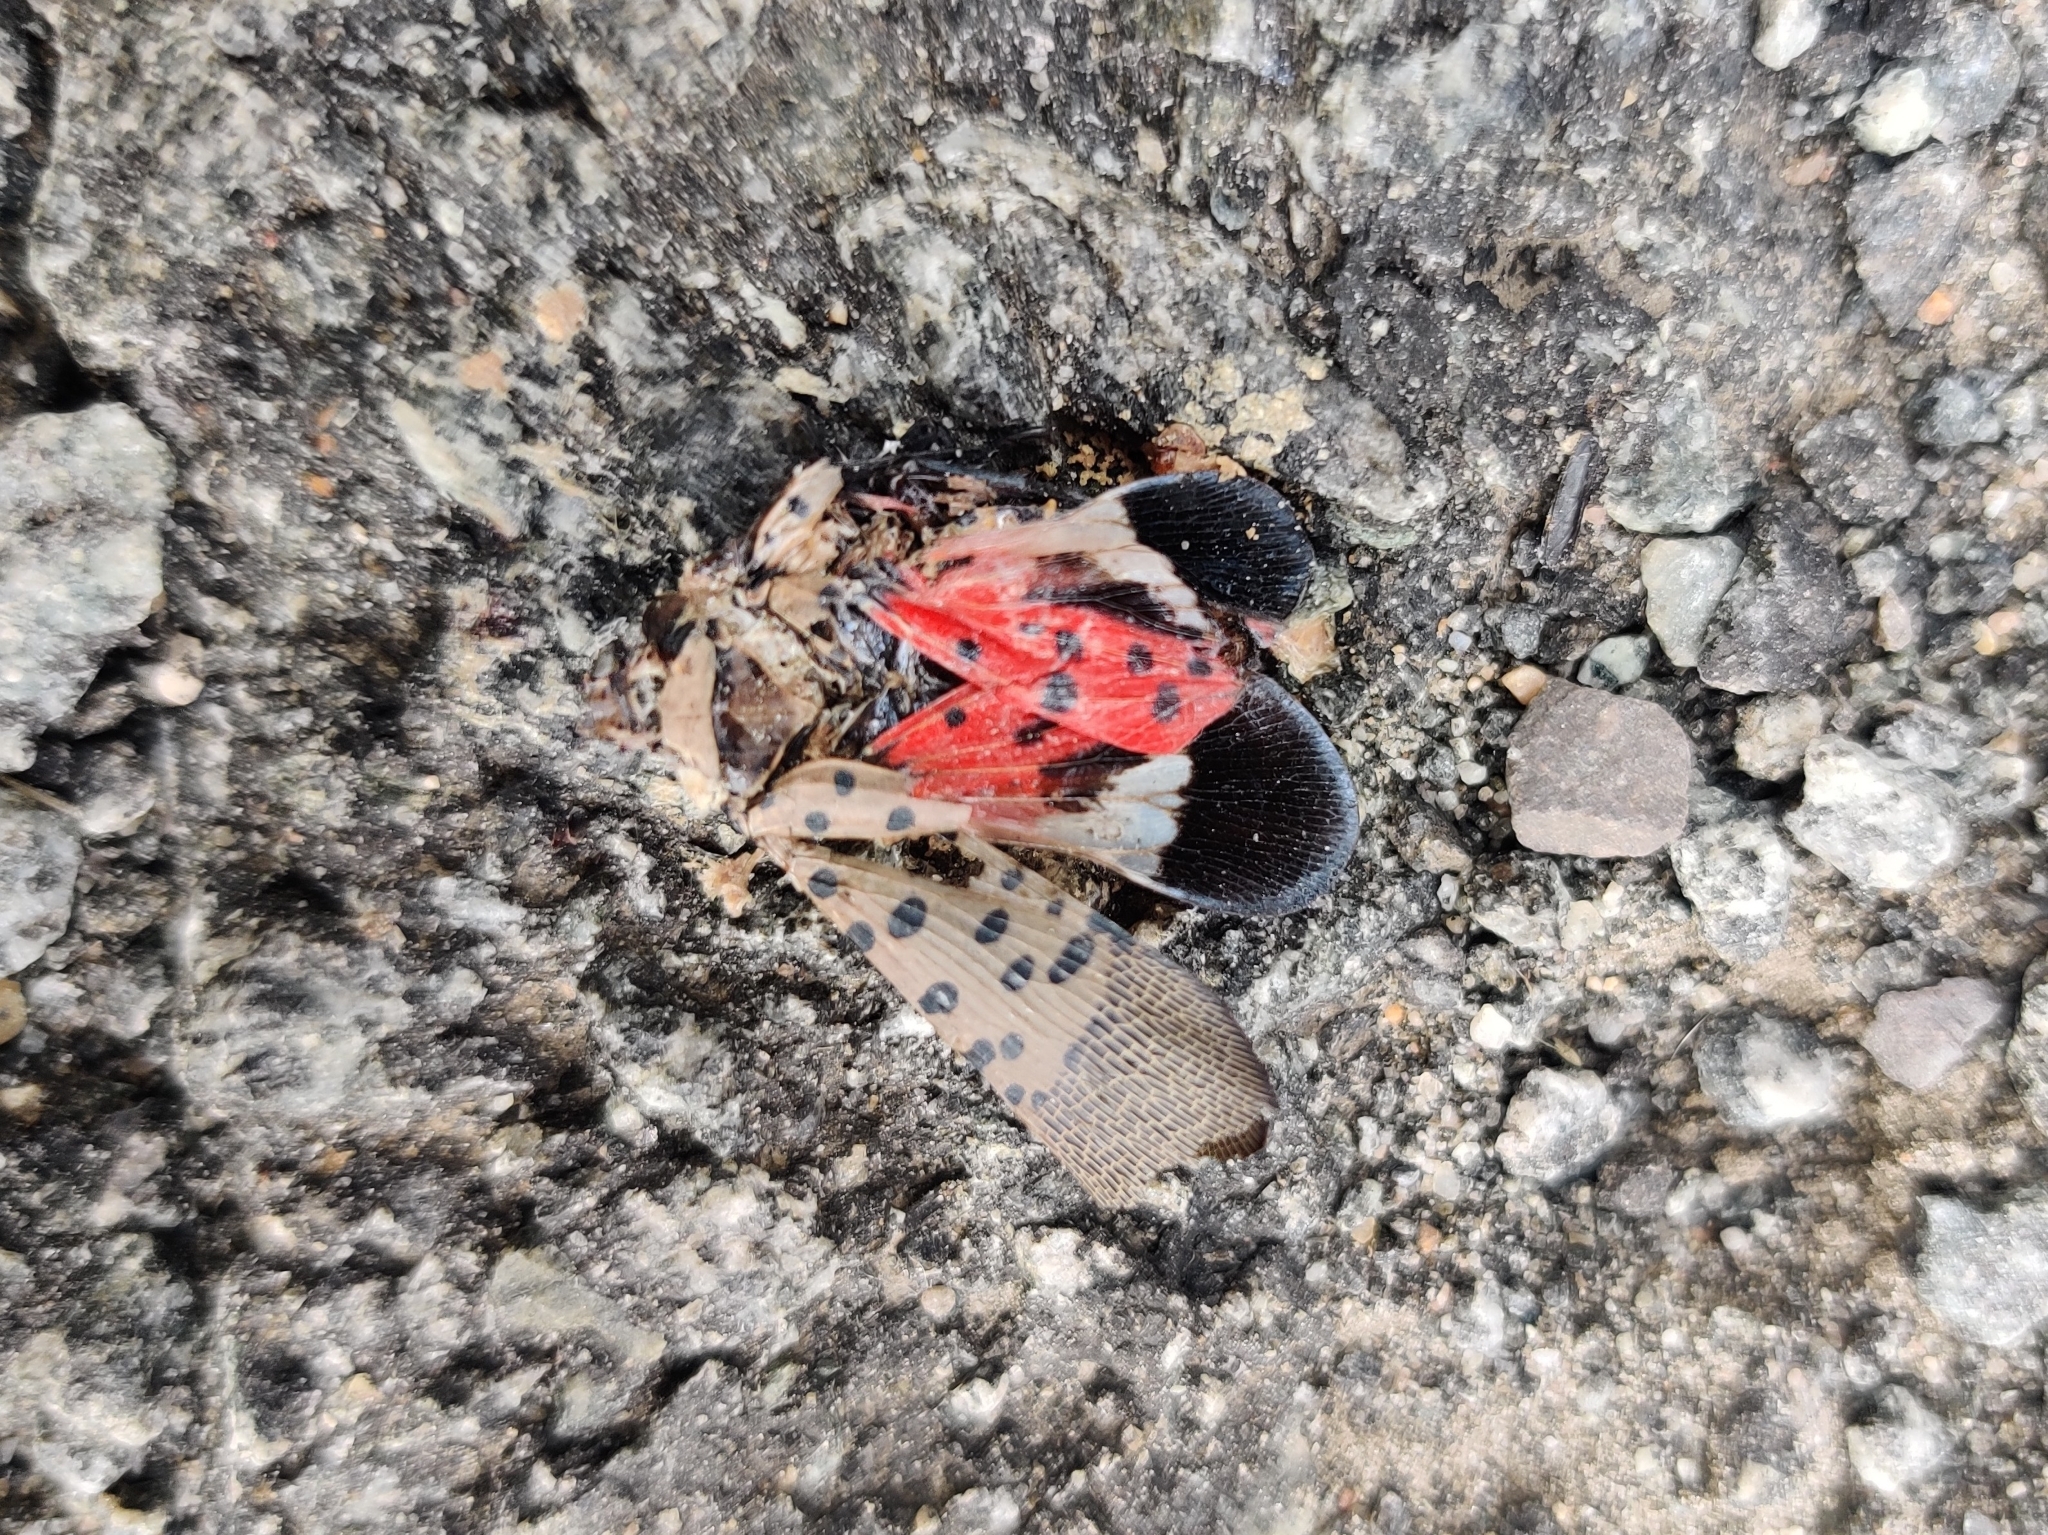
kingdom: Animalia
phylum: Arthropoda
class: Insecta
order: Hemiptera
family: Fulgoridae
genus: Lycorma
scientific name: Lycorma delicatula
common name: Spotted lanternfly
